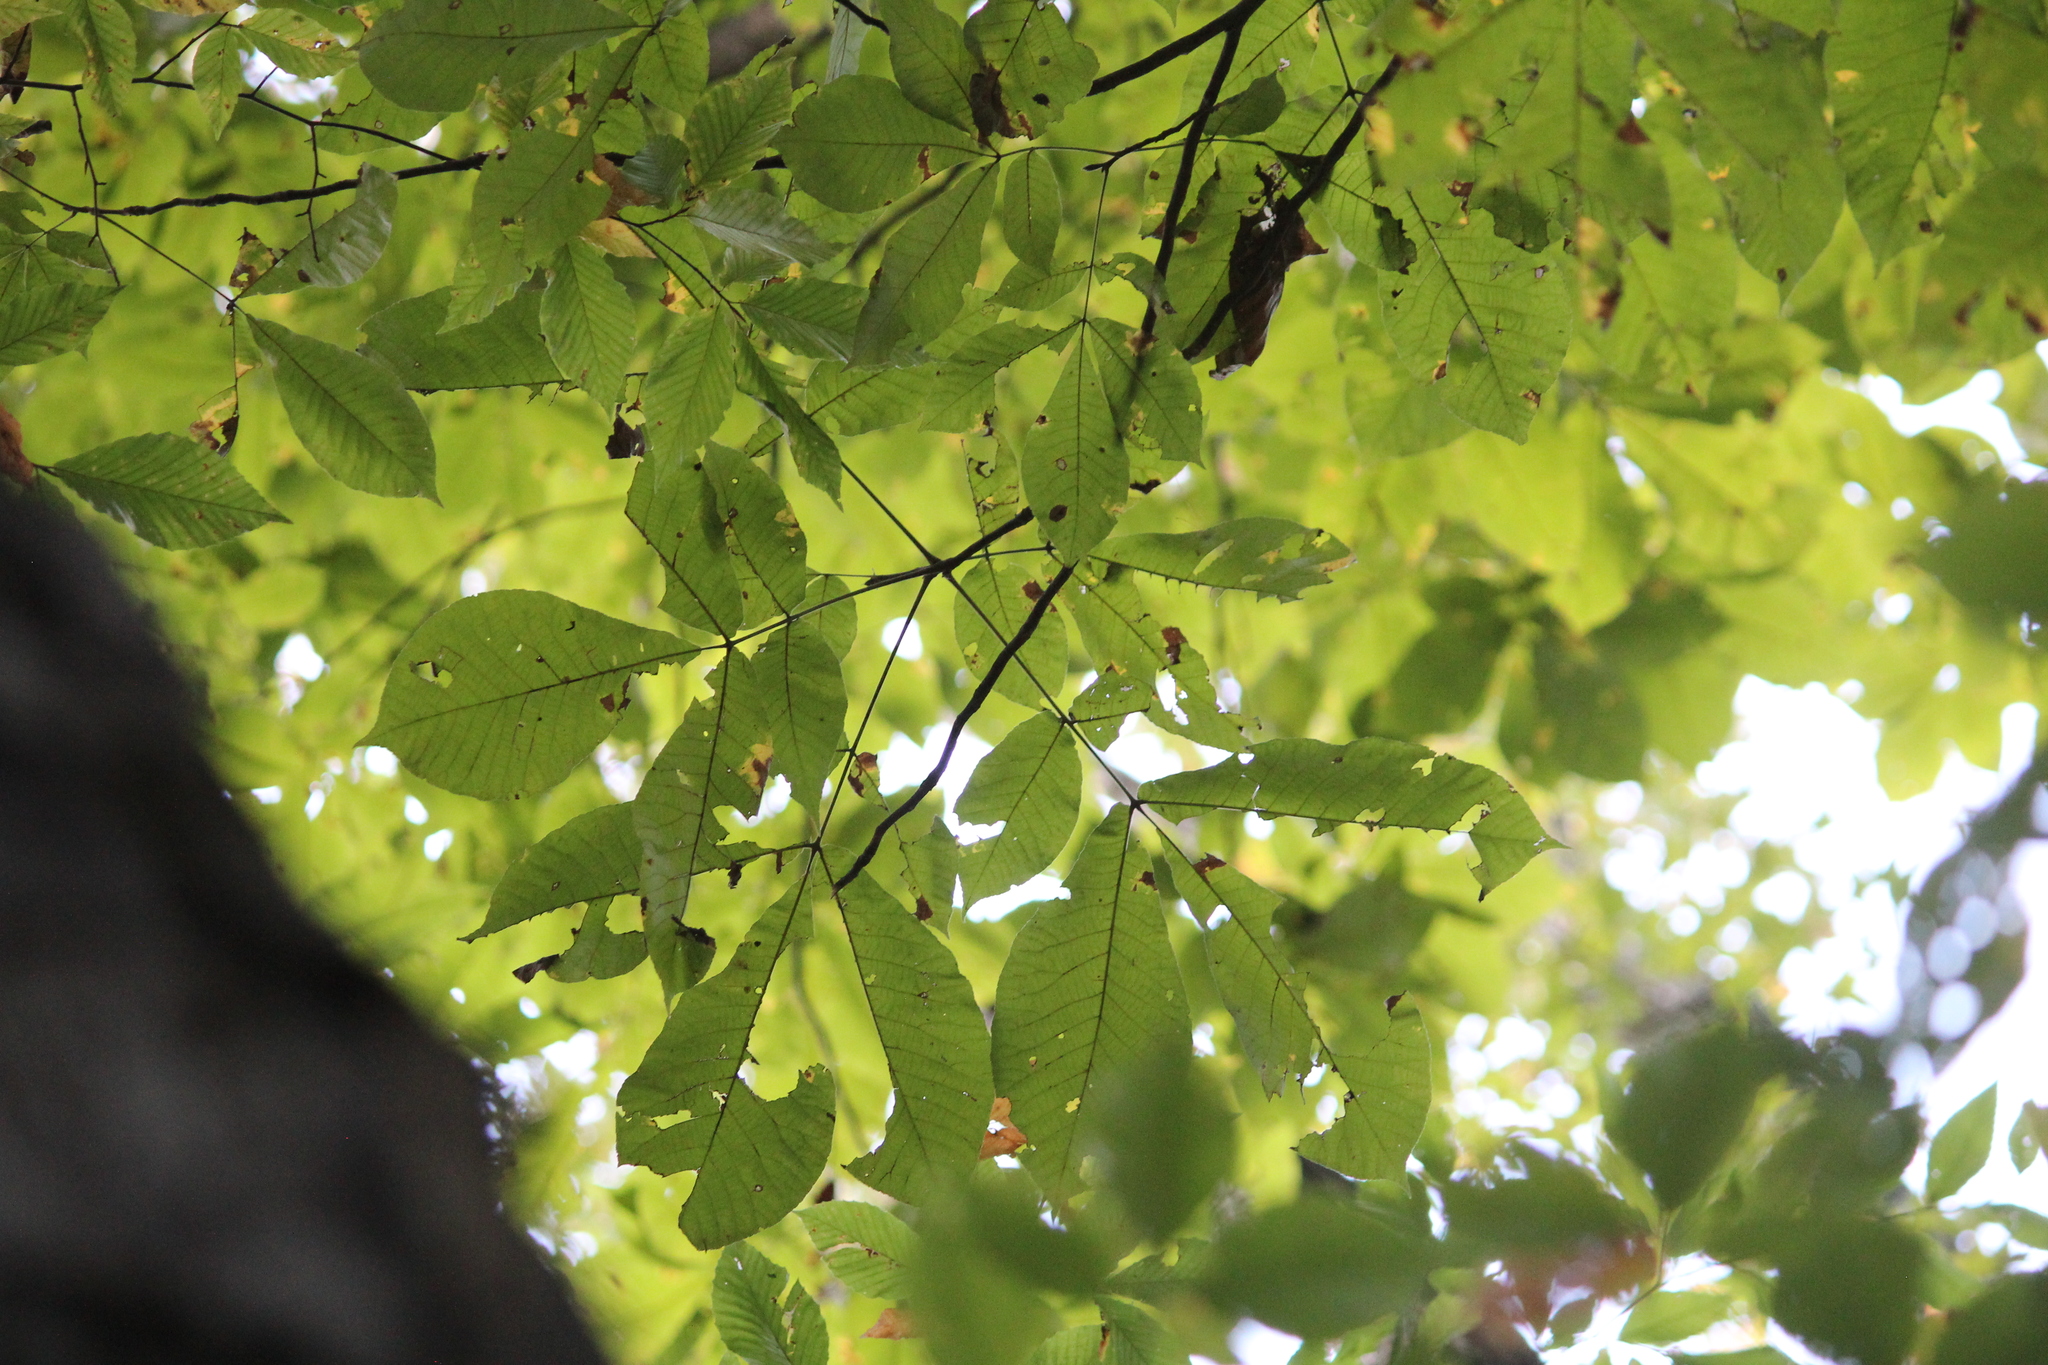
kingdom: Plantae
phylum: Tracheophyta
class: Magnoliopsida
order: Fagales
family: Juglandaceae
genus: Carya
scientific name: Carya ovata
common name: Shagbark hickory
